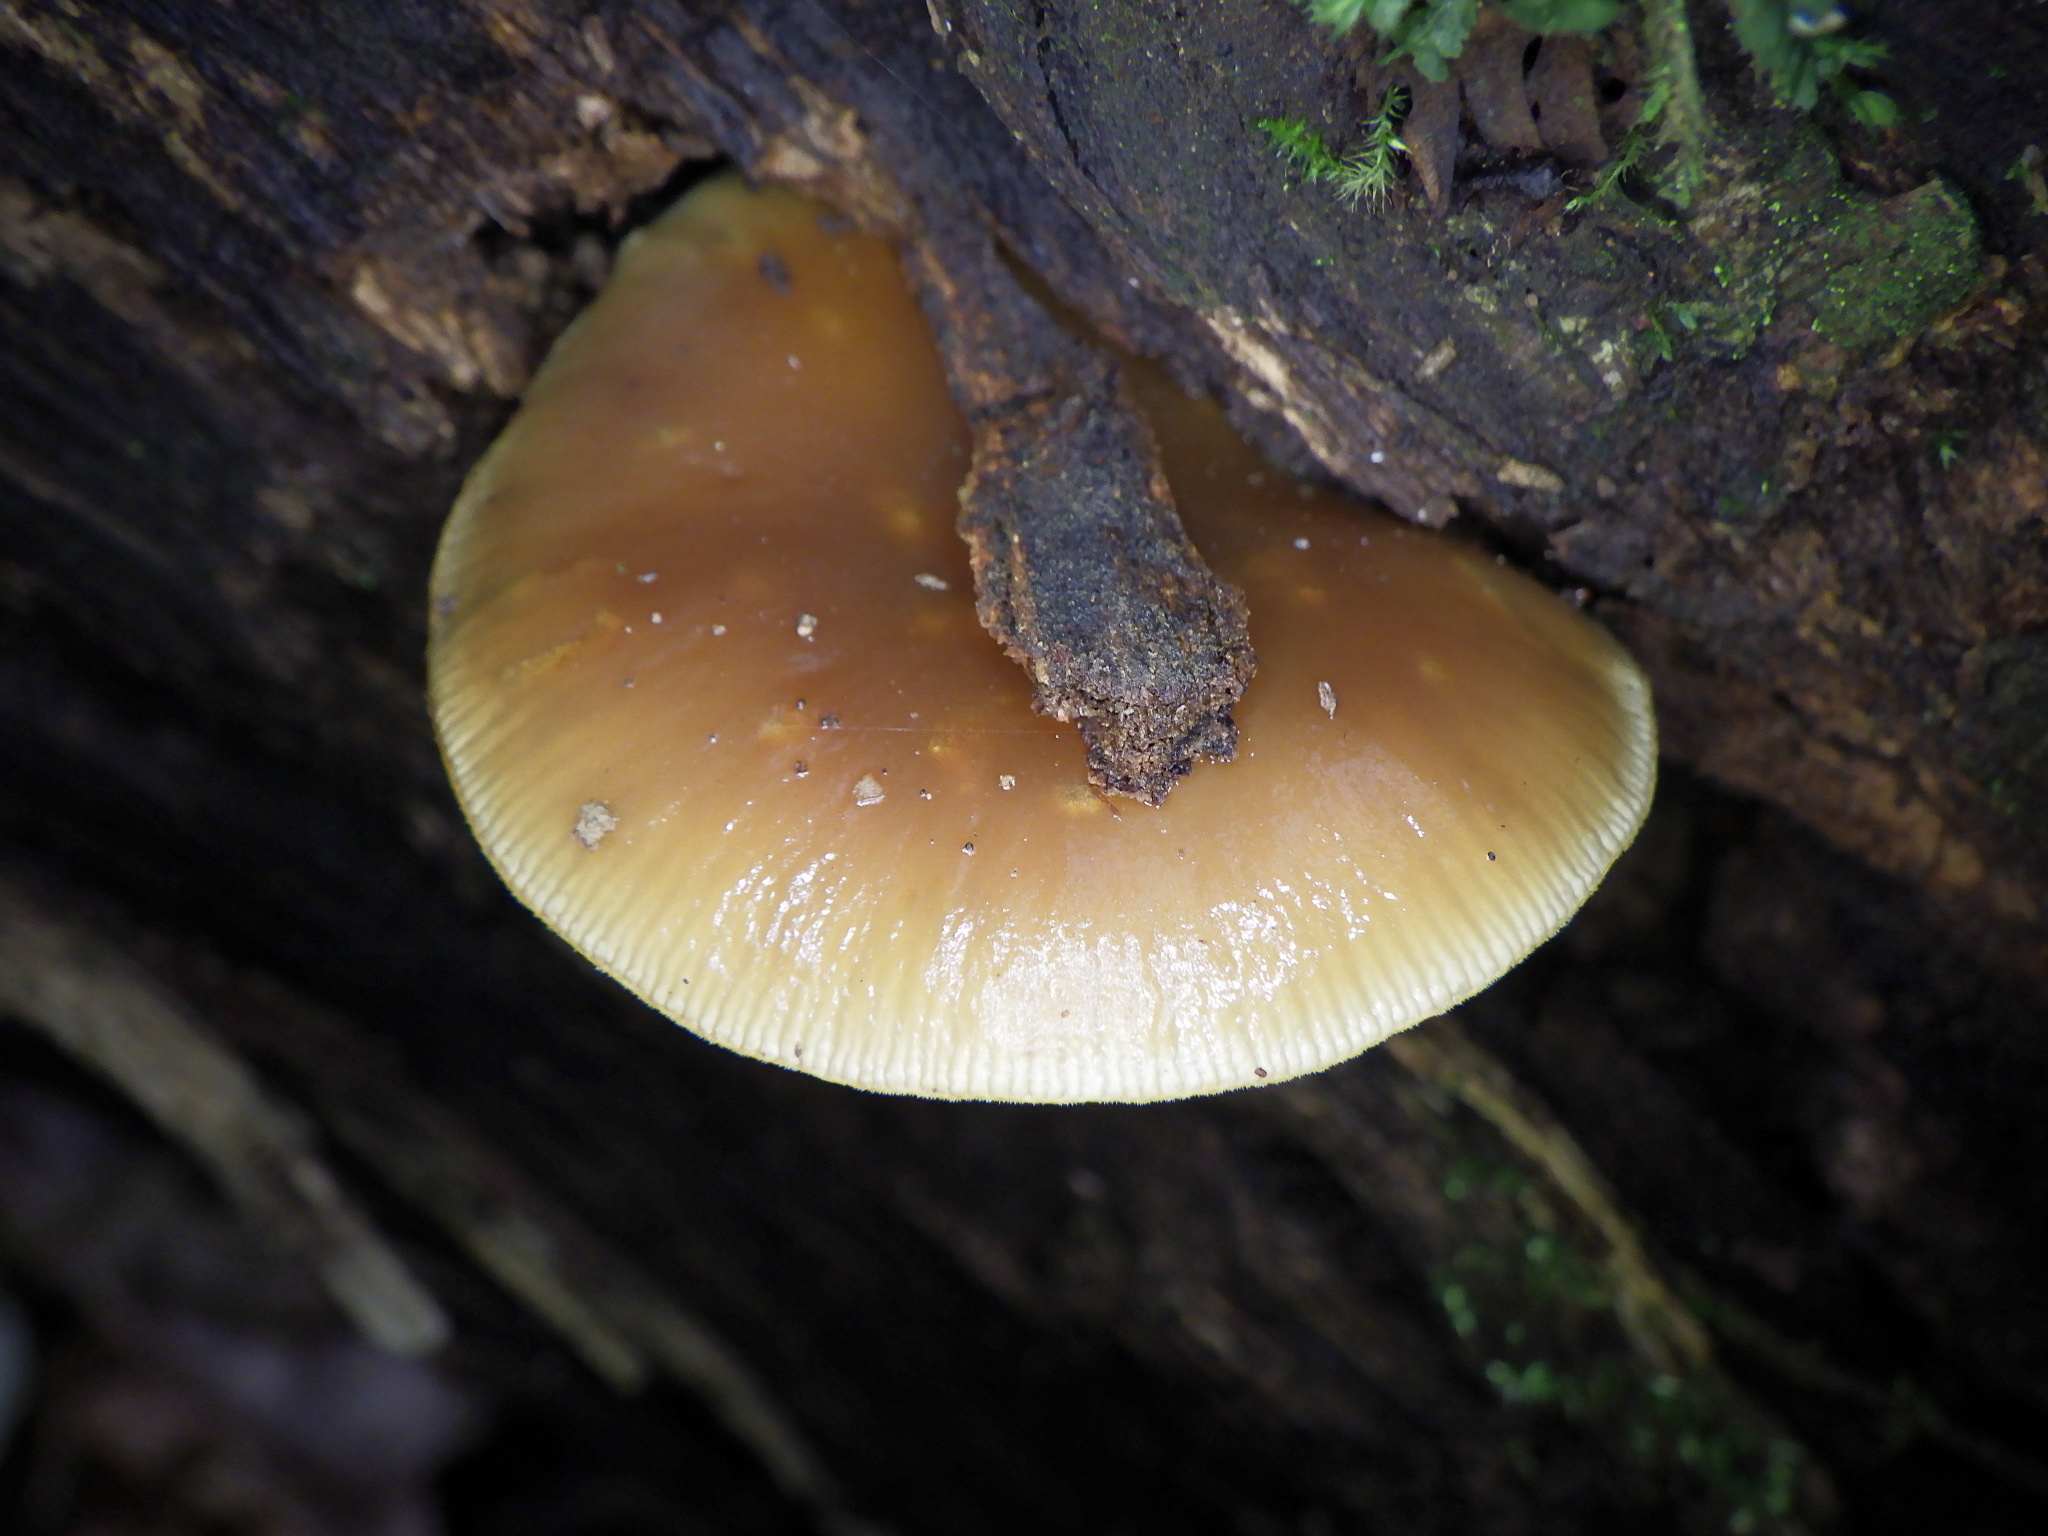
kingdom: Fungi
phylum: Basidiomycota
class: Agaricomycetes
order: Agaricales
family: Physalacriaceae
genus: Flammulina
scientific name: Flammulina velutipes
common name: Velvet shank
